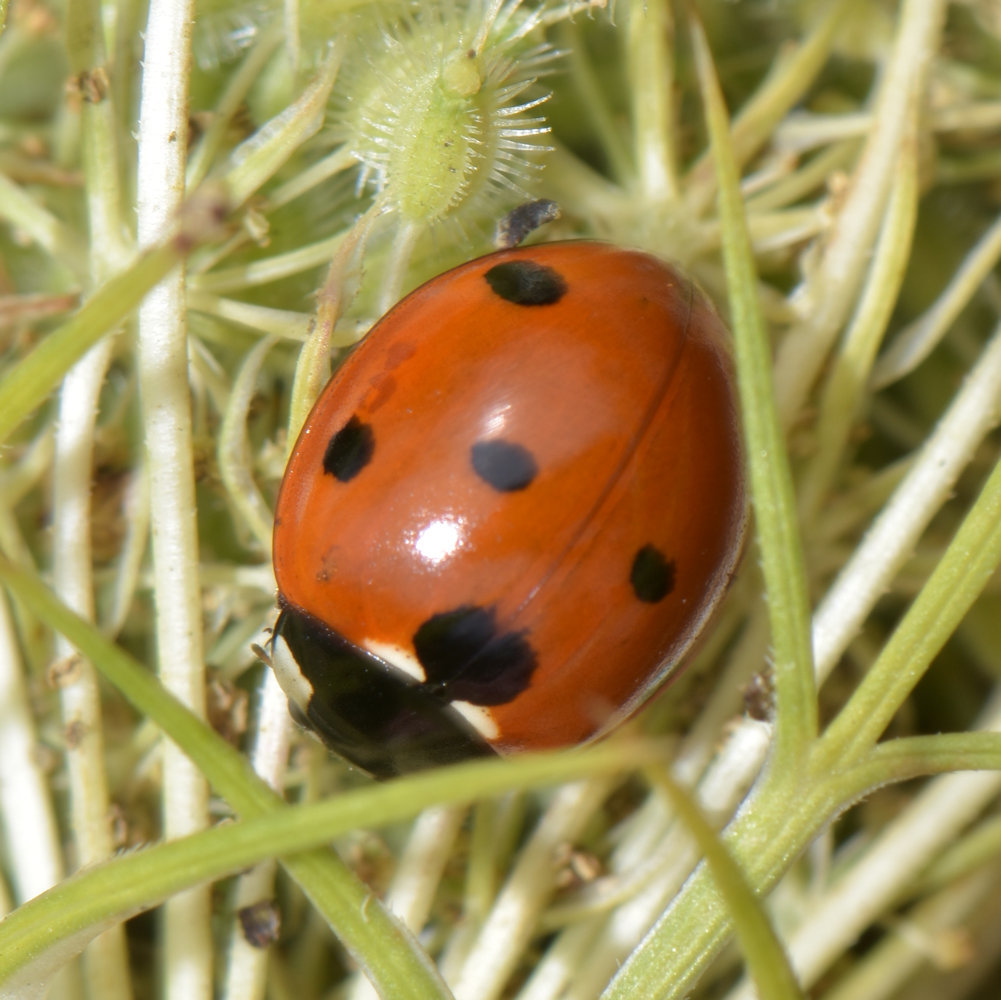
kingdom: Animalia
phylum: Arthropoda
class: Insecta
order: Coleoptera
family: Coccinellidae
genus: Coccinella
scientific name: Coccinella septempunctata
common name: Sevenspotted lady beetle
